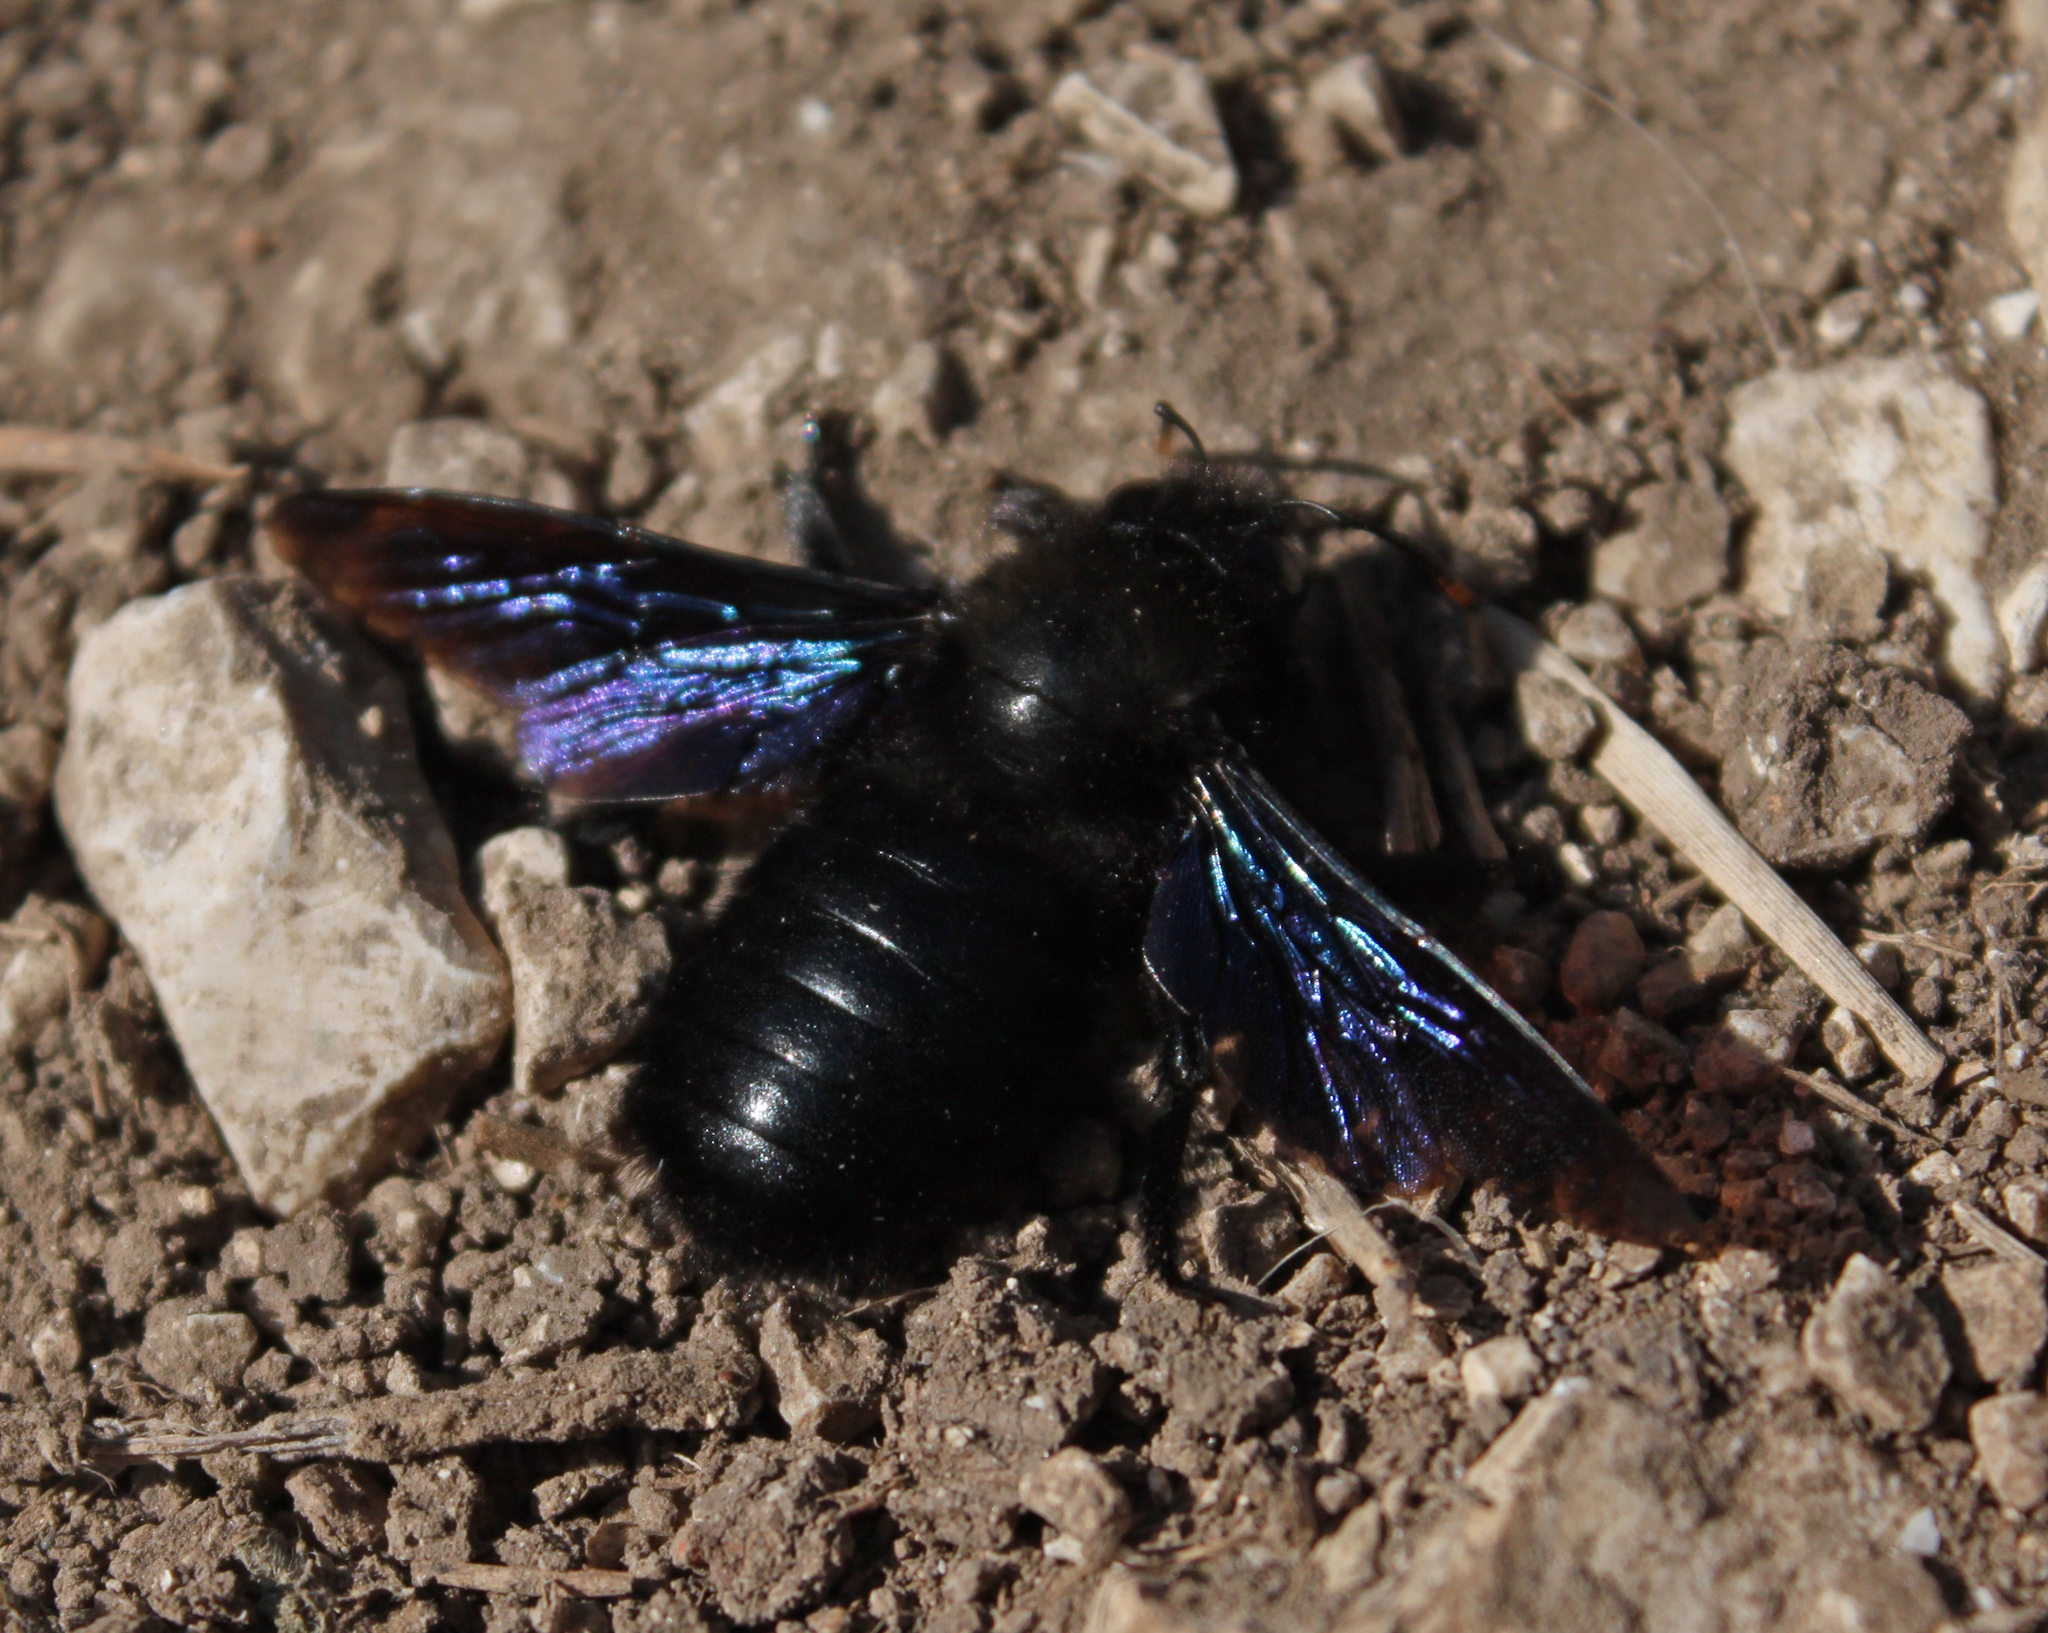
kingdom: Animalia
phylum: Arthropoda
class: Insecta
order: Hymenoptera
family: Apidae
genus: Xylocopa
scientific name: Xylocopa violacea
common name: Violet carpenter bee
